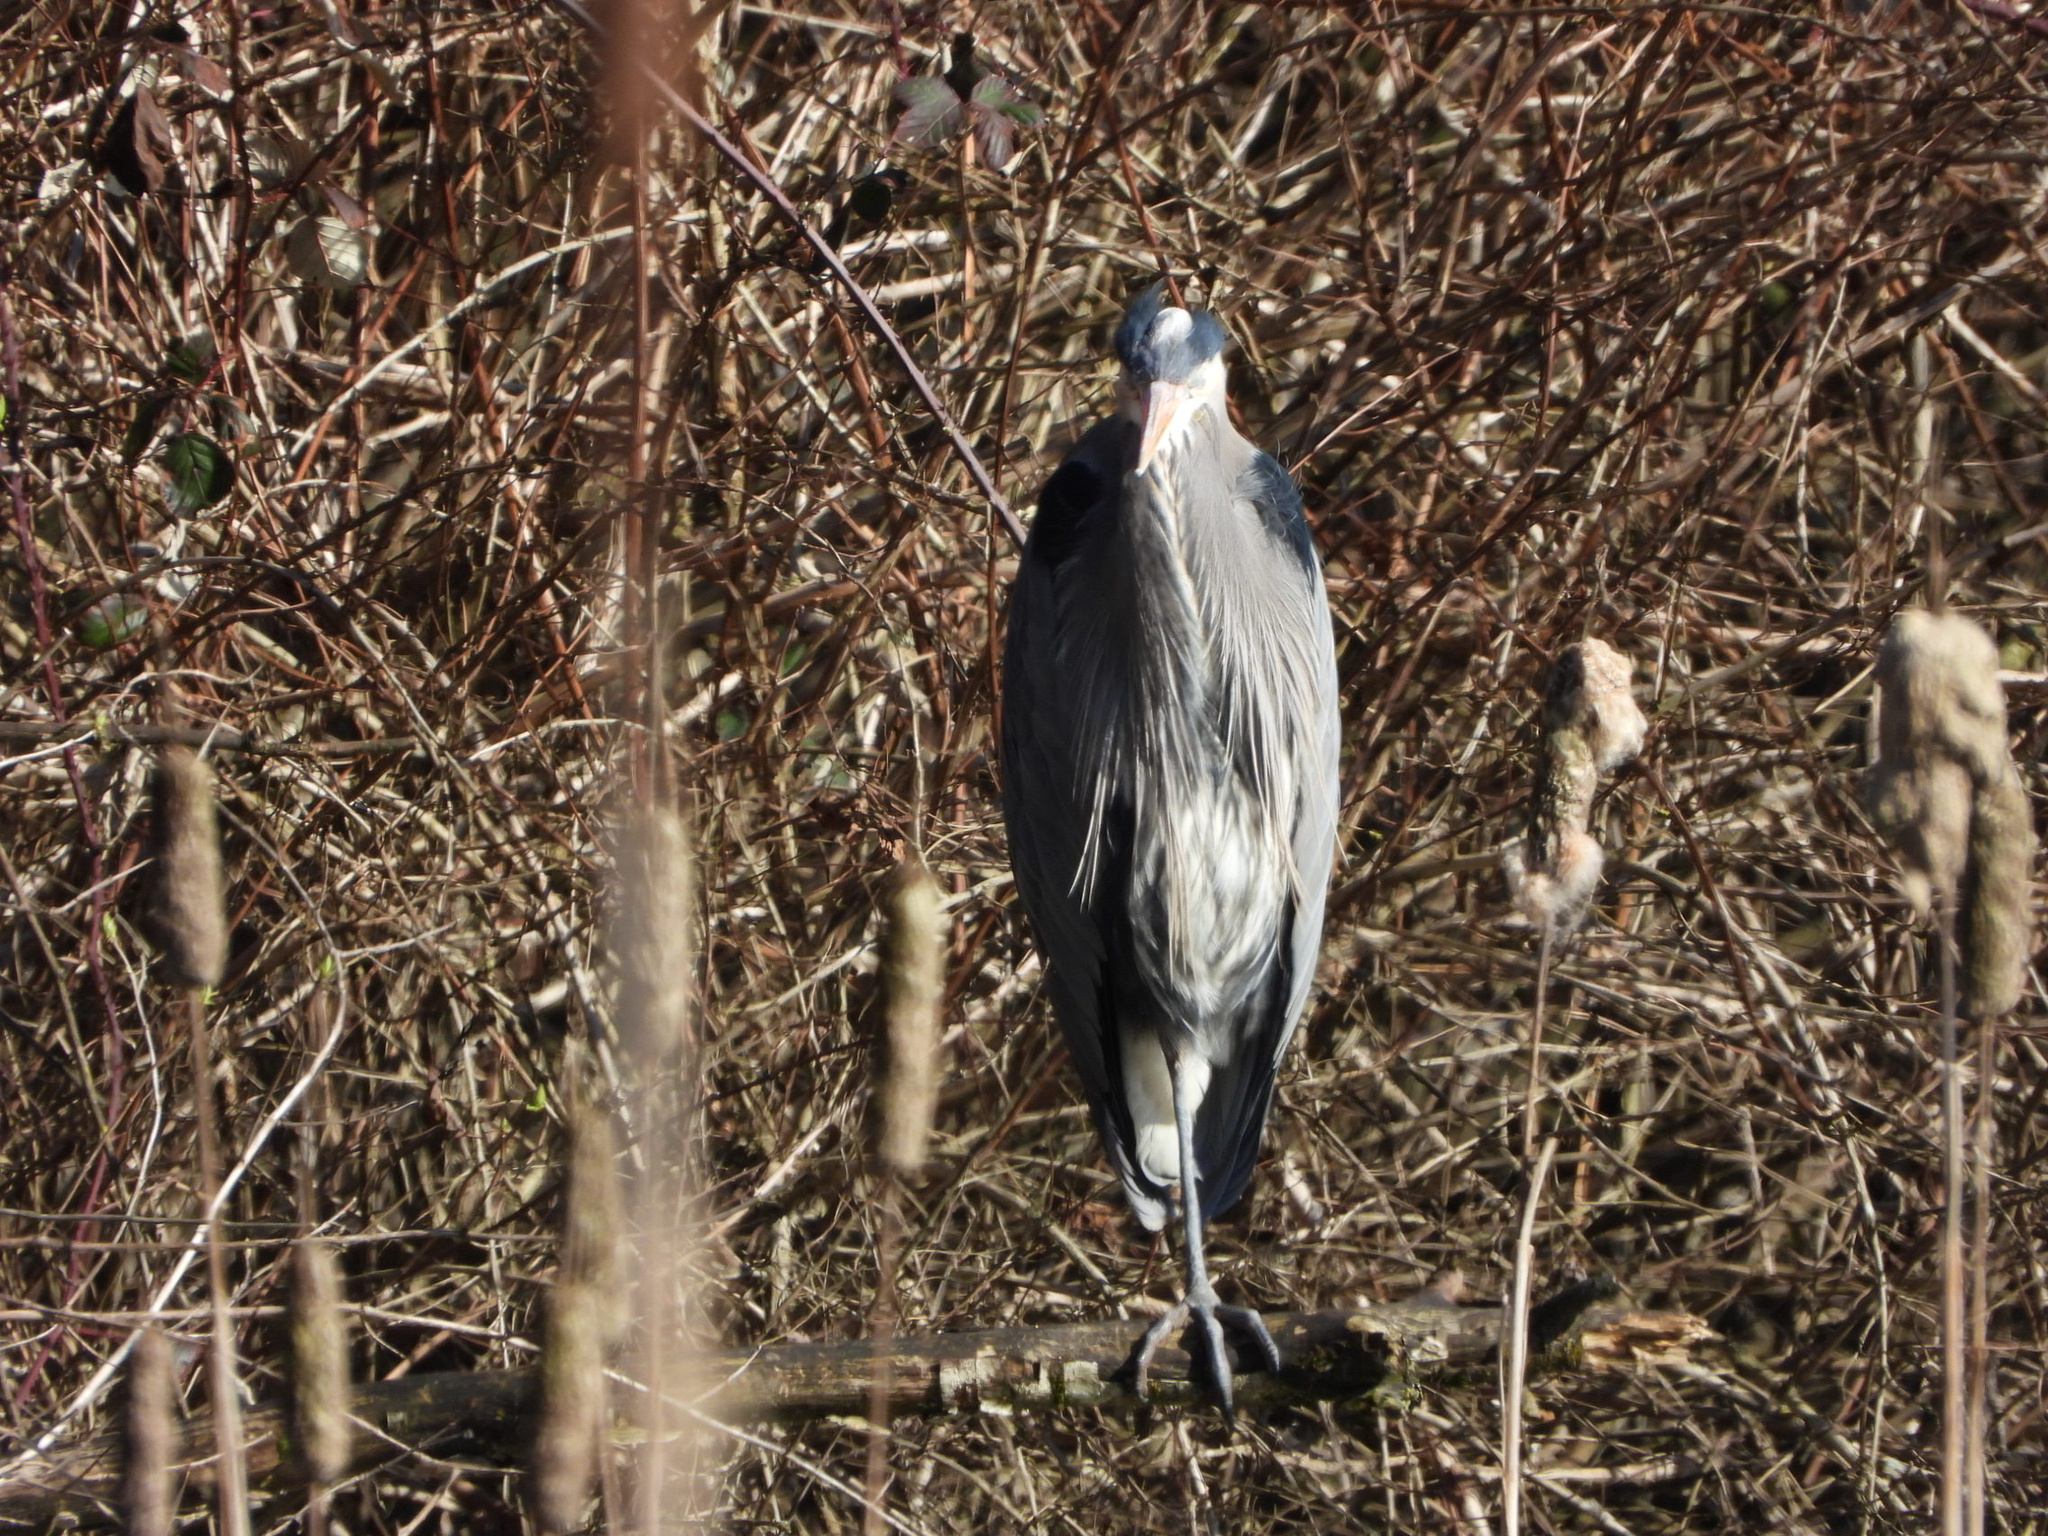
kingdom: Animalia
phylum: Chordata
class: Aves
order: Pelecaniformes
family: Ardeidae
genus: Ardea
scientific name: Ardea herodias
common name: Great blue heron
